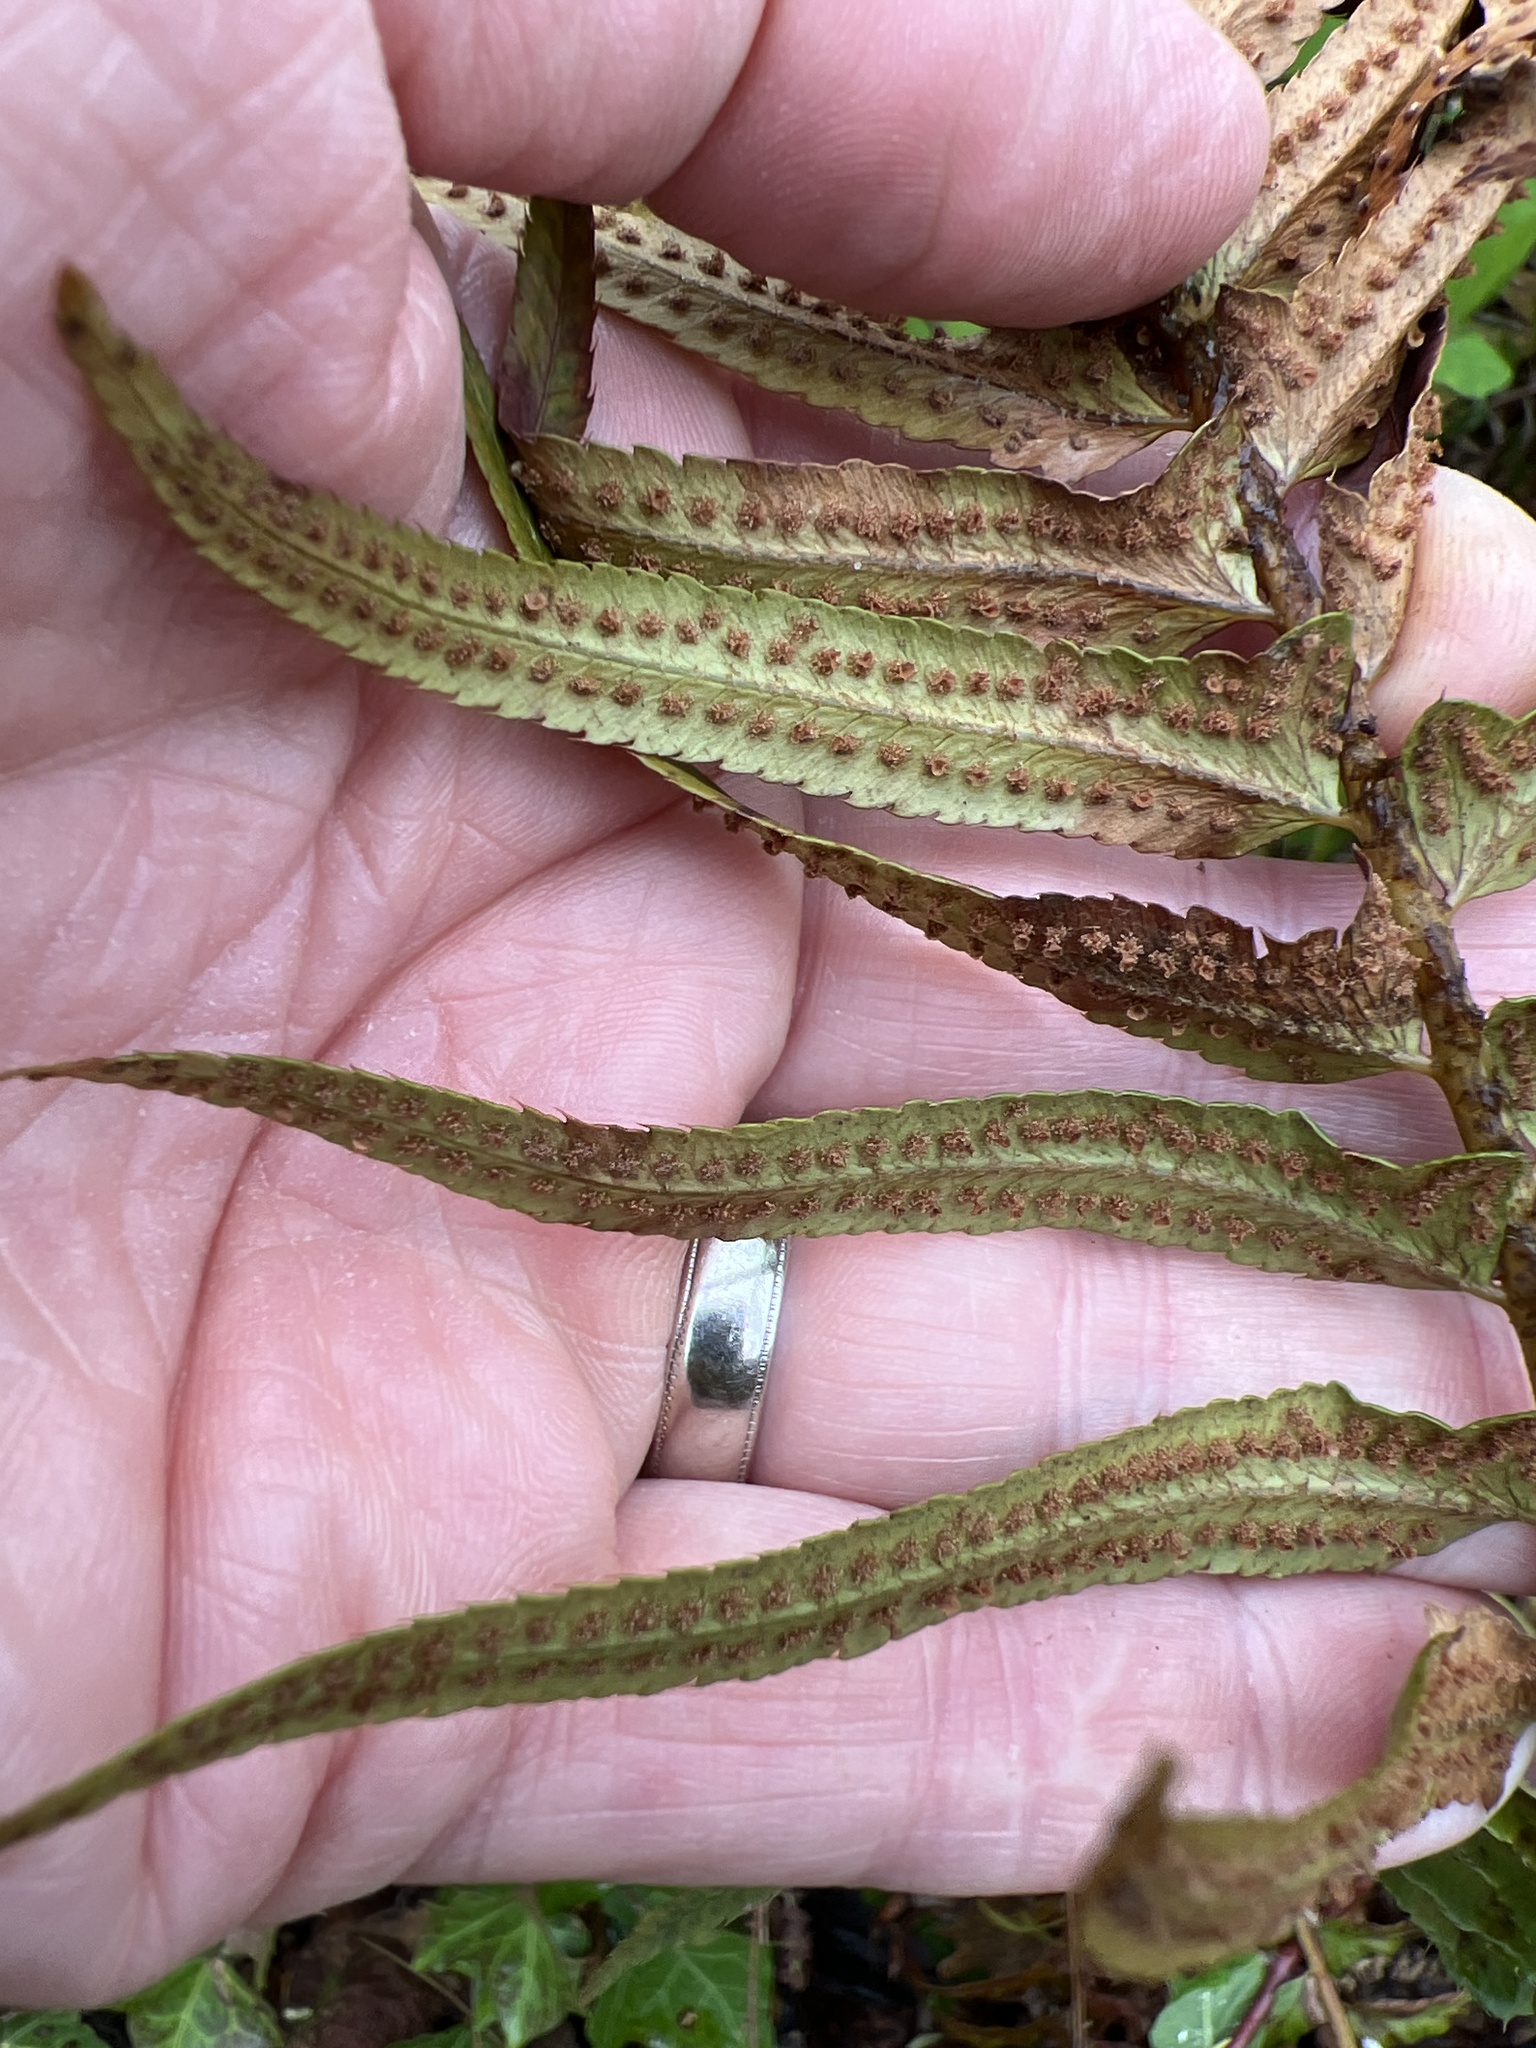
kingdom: Plantae
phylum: Tracheophyta
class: Polypodiopsida
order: Polypodiales
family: Dryopteridaceae
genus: Polystichum
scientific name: Polystichum munitum
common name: Western sword-fern
